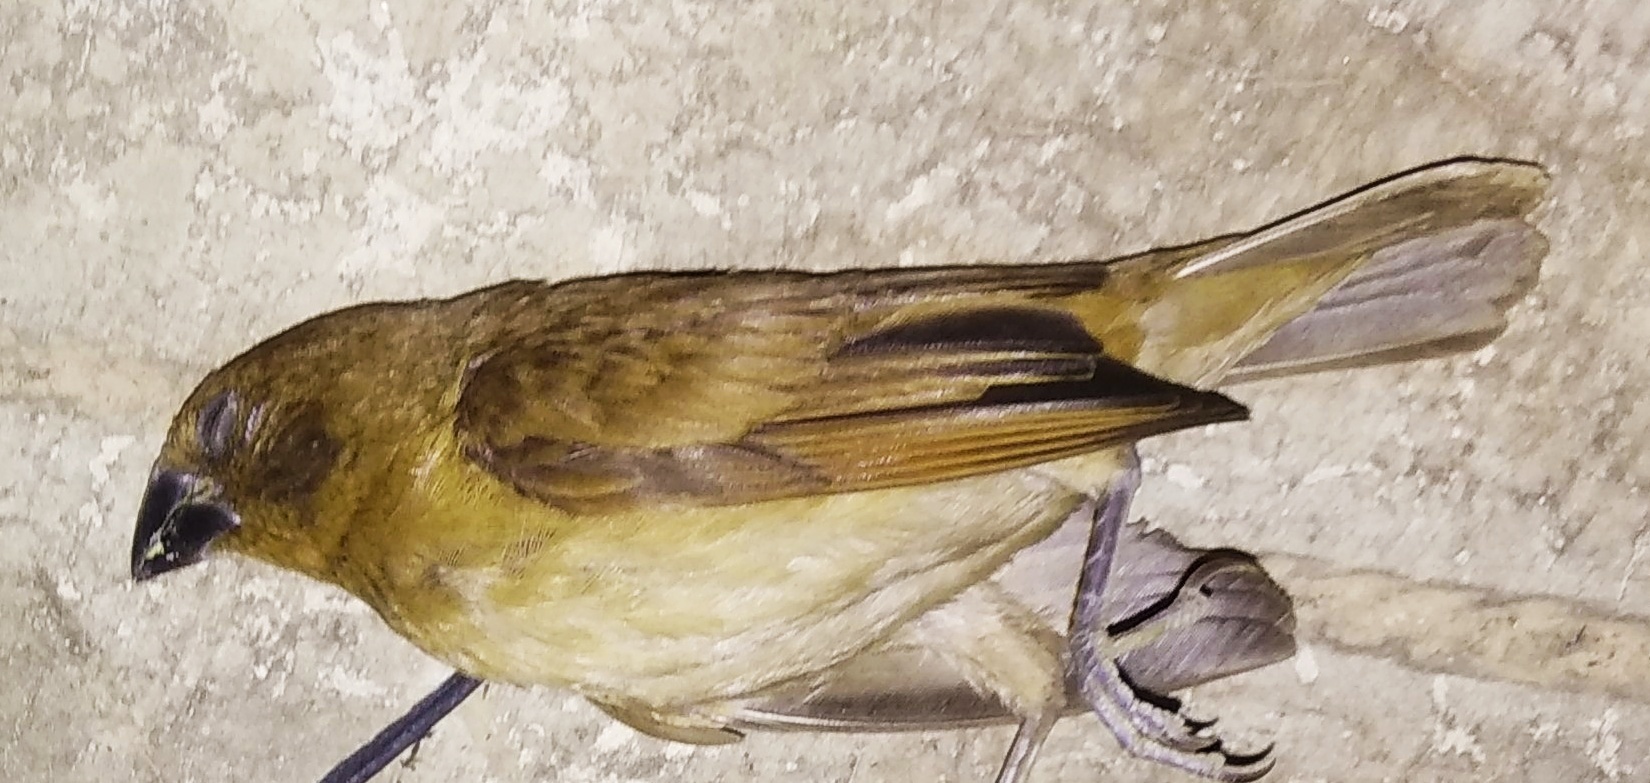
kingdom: Animalia
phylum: Chordata
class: Aves
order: Passeriformes
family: Estrildidae
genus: Lonchura
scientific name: Lonchura punctulata
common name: Scaly-breasted munia
